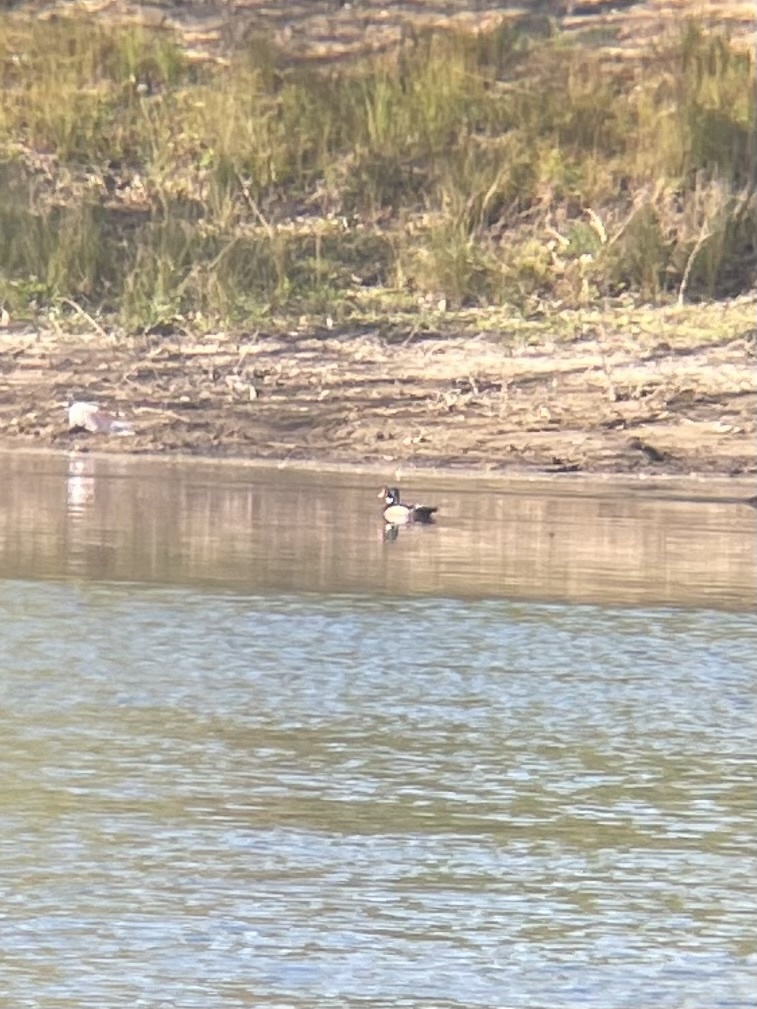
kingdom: Animalia
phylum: Chordata
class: Aves
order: Anseriformes
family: Anatidae
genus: Aix
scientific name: Aix sponsa
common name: Wood duck
